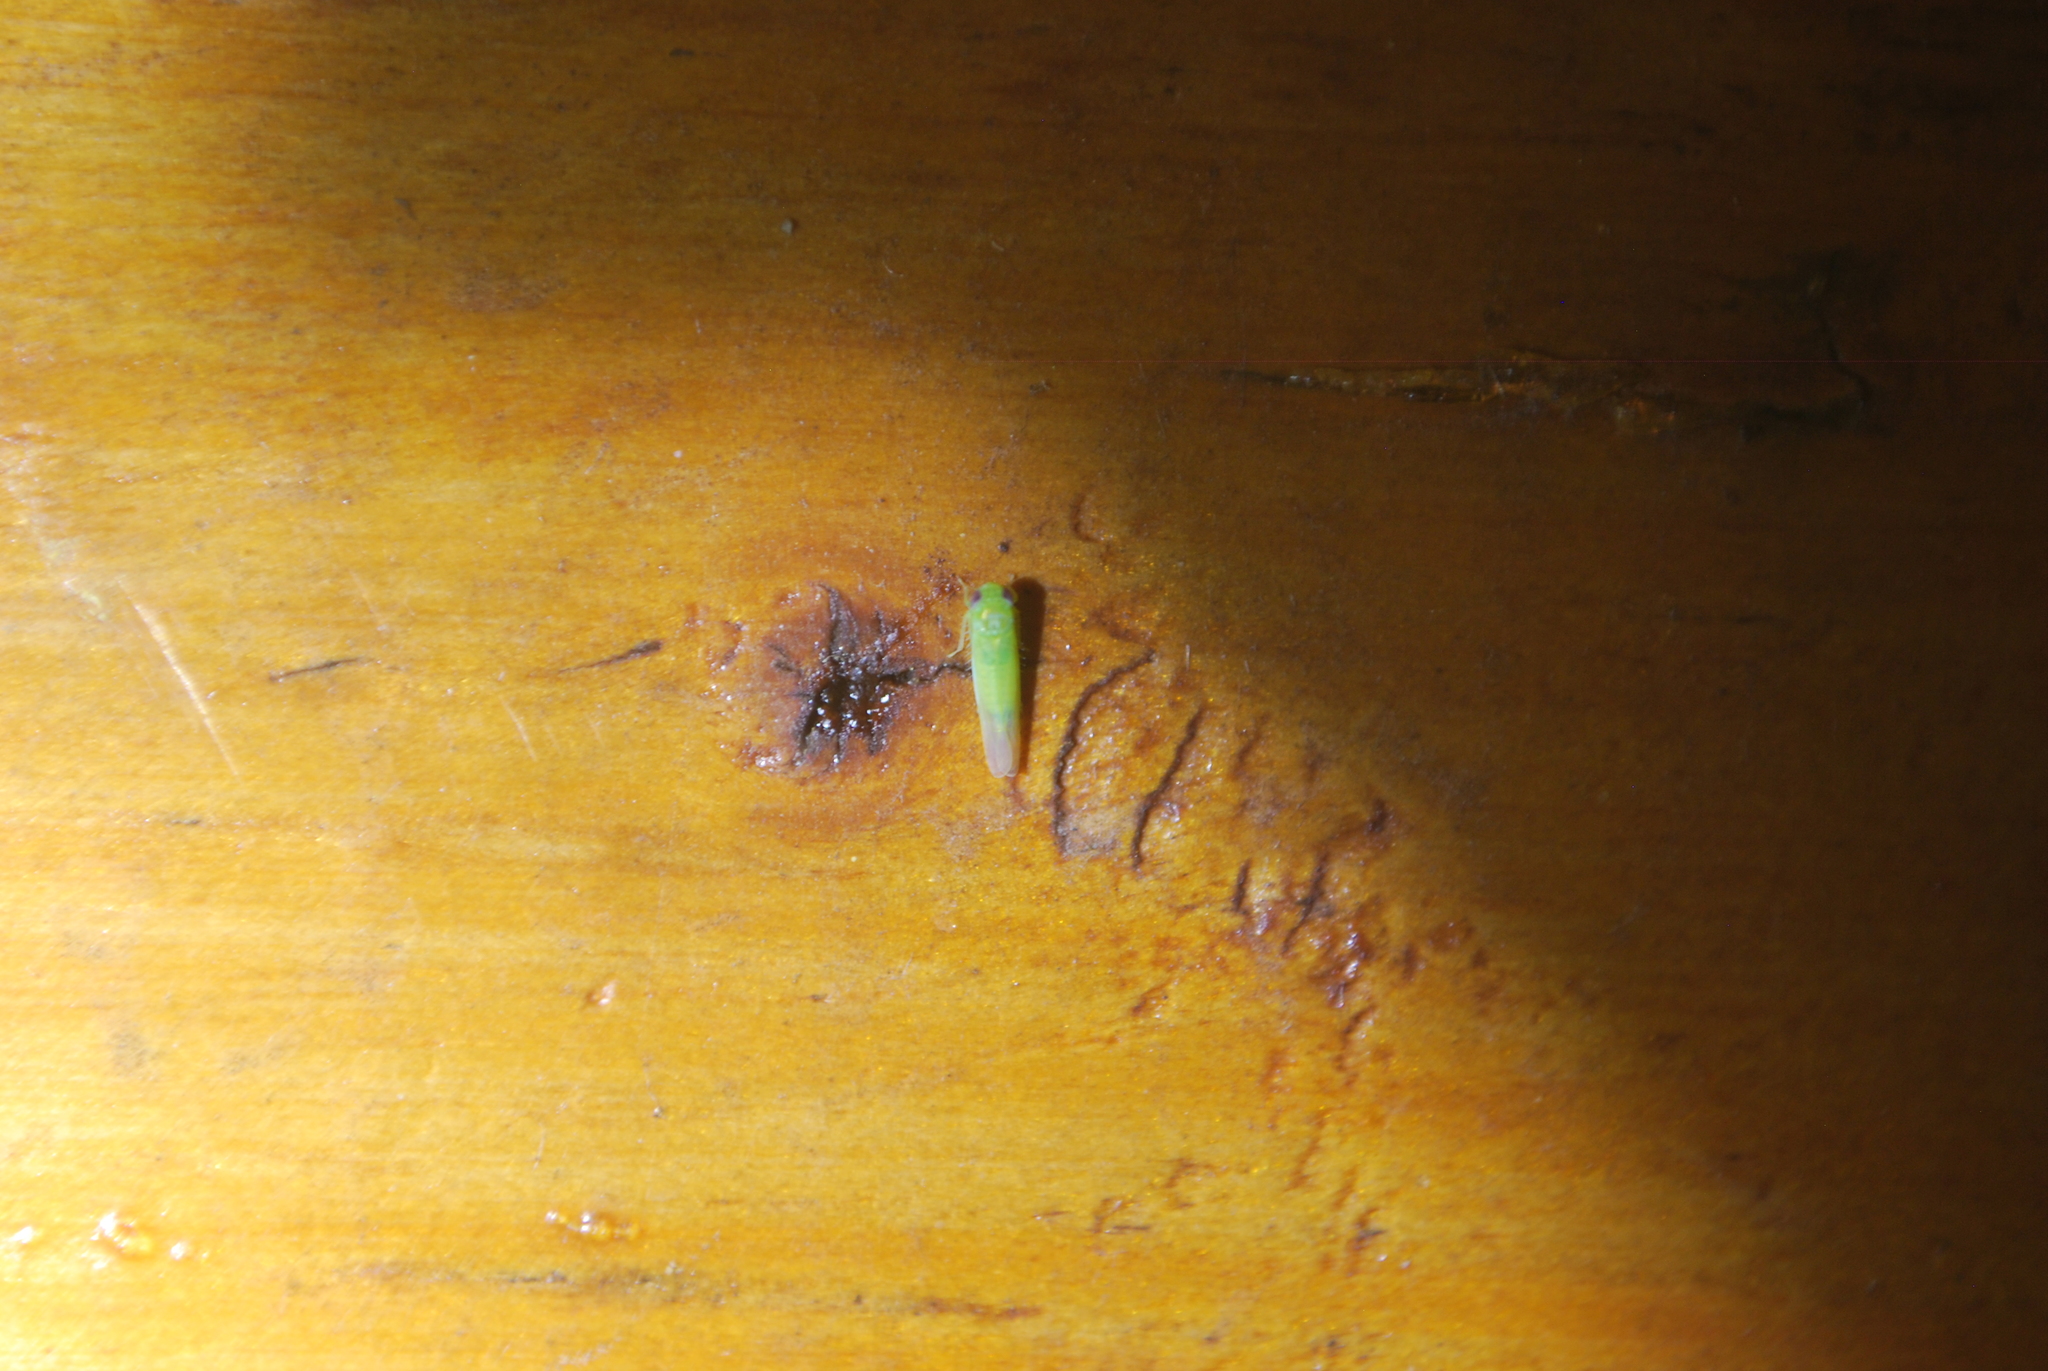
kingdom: Animalia
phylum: Arthropoda
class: Insecta
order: Hemiptera
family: Cicadellidae
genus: Empoasca
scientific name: Empoasca fabae
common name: Potato leafhopper
